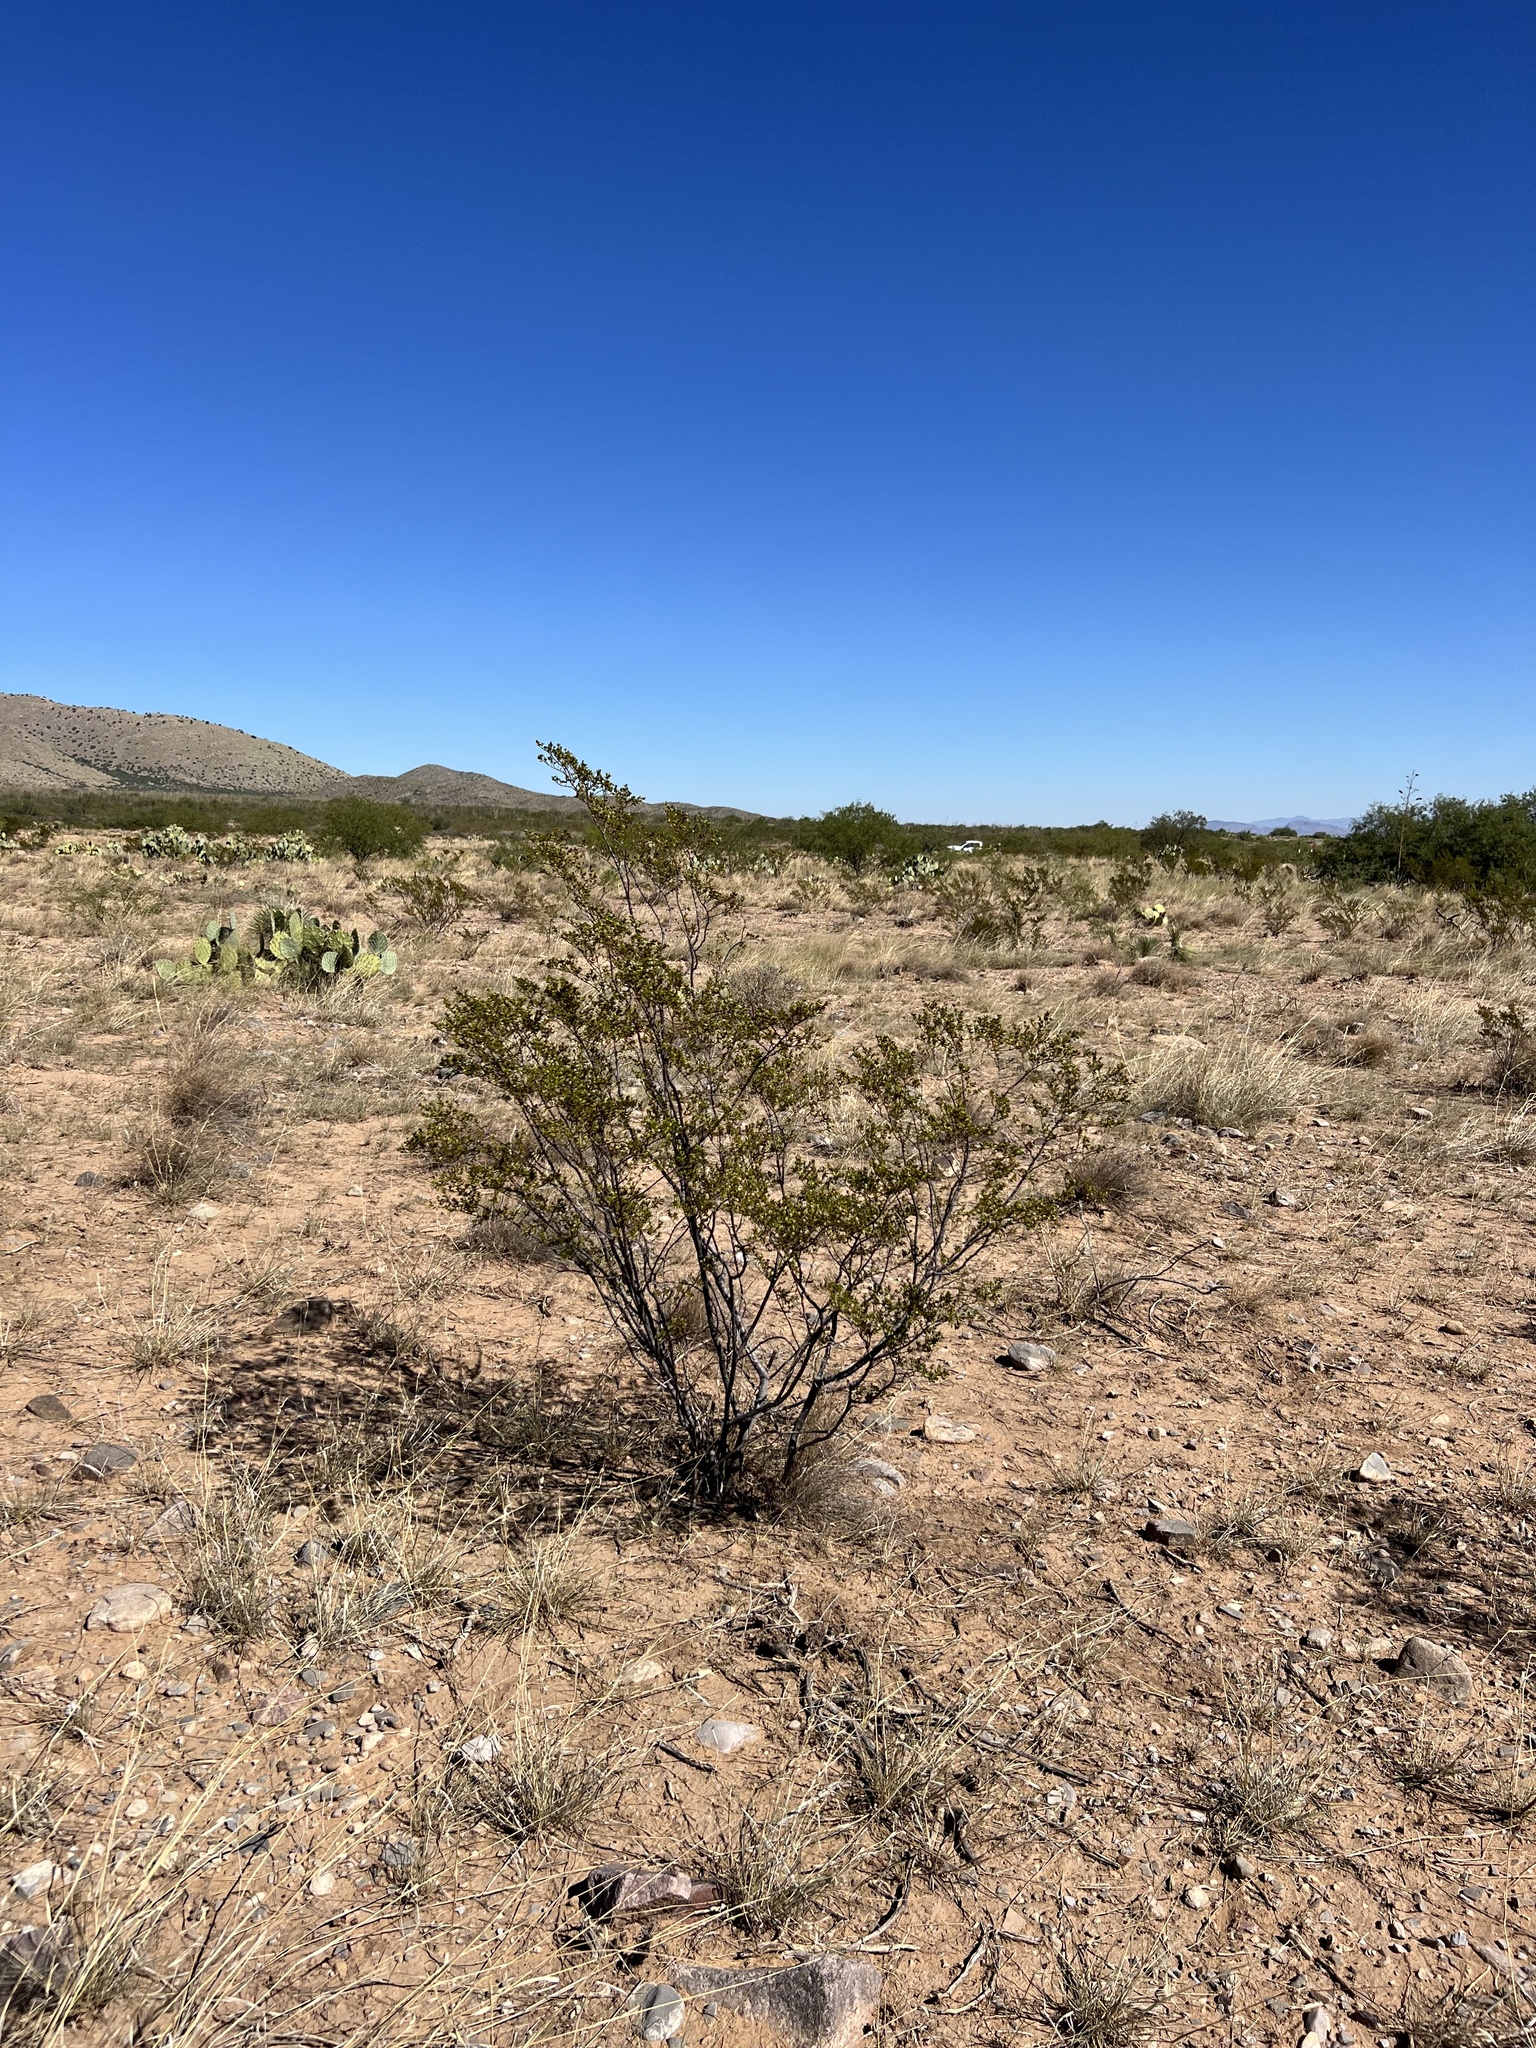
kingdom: Plantae
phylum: Tracheophyta
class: Magnoliopsida
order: Zygophyllales
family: Zygophyllaceae
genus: Larrea
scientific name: Larrea tridentata
